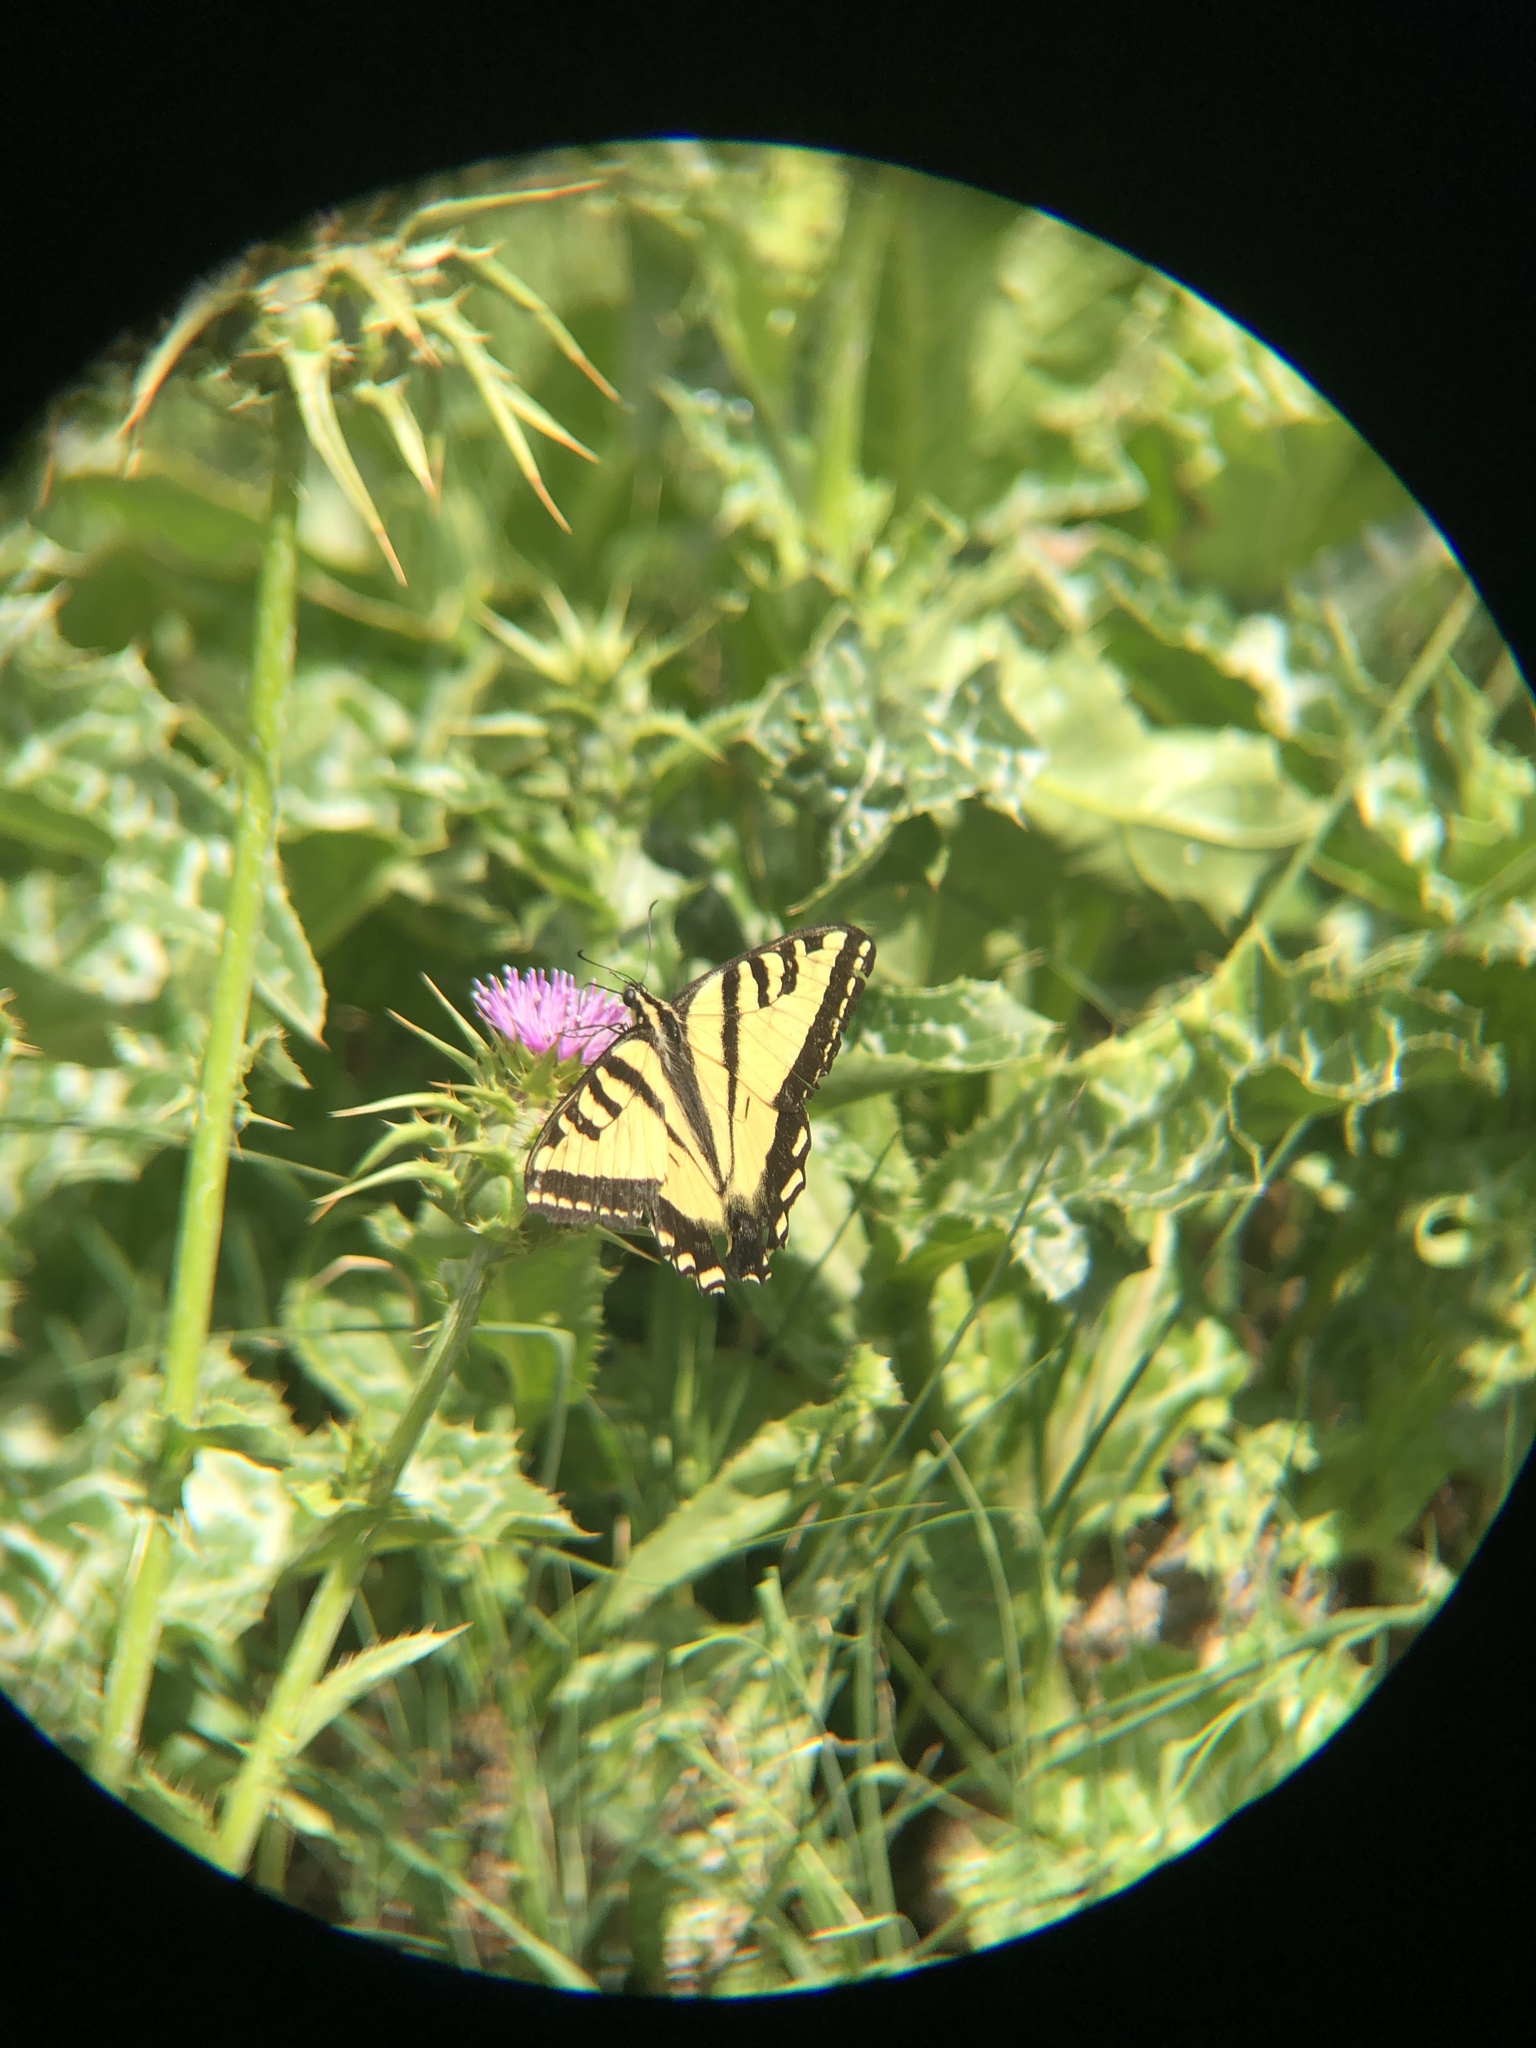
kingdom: Animalia
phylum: Arthropoda
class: Insecta
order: Lepidoptera
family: Papilionidae
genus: Papilio
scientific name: Papilio rutulus
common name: Western tiger swallowtail
